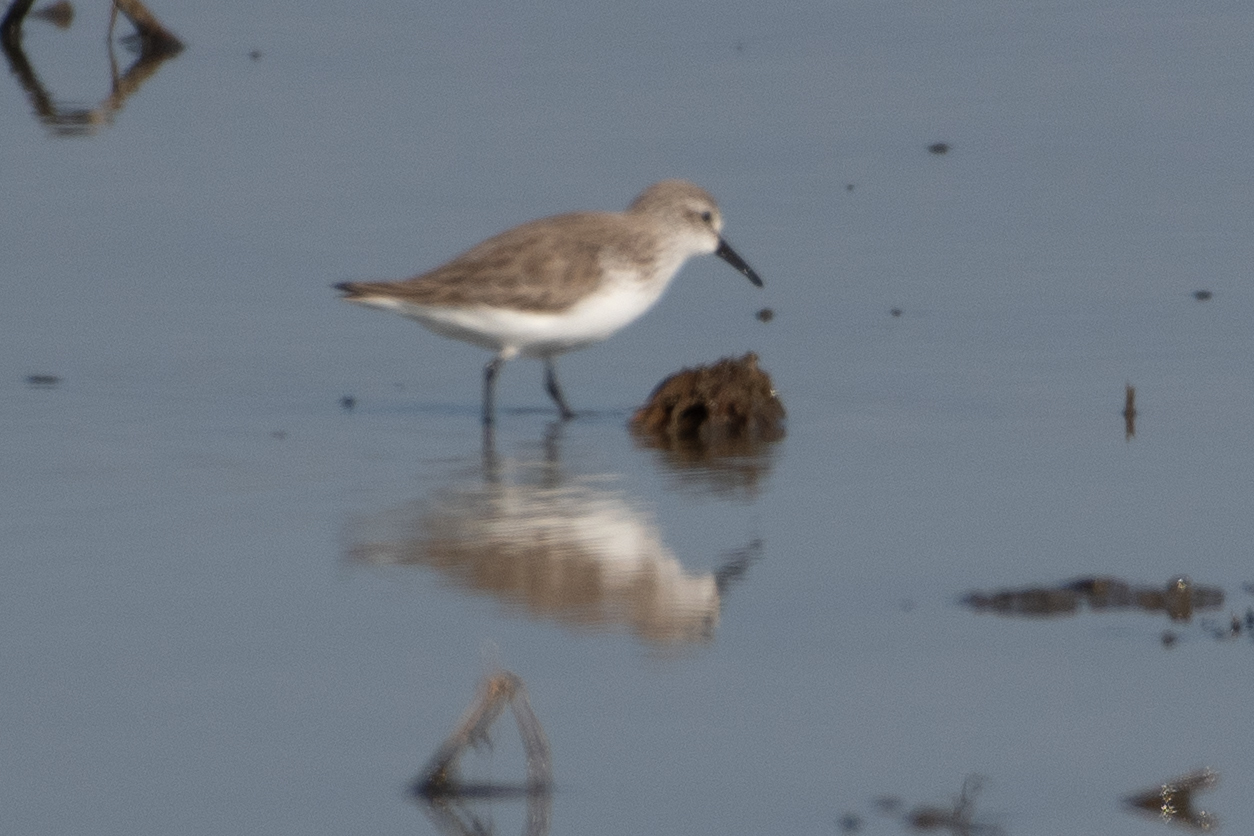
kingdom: Animalia
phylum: Chordata
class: Aves
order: Charadriiformes
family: Scolopacidae
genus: Calidris
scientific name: Calidris mauri
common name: Western sandpiper
